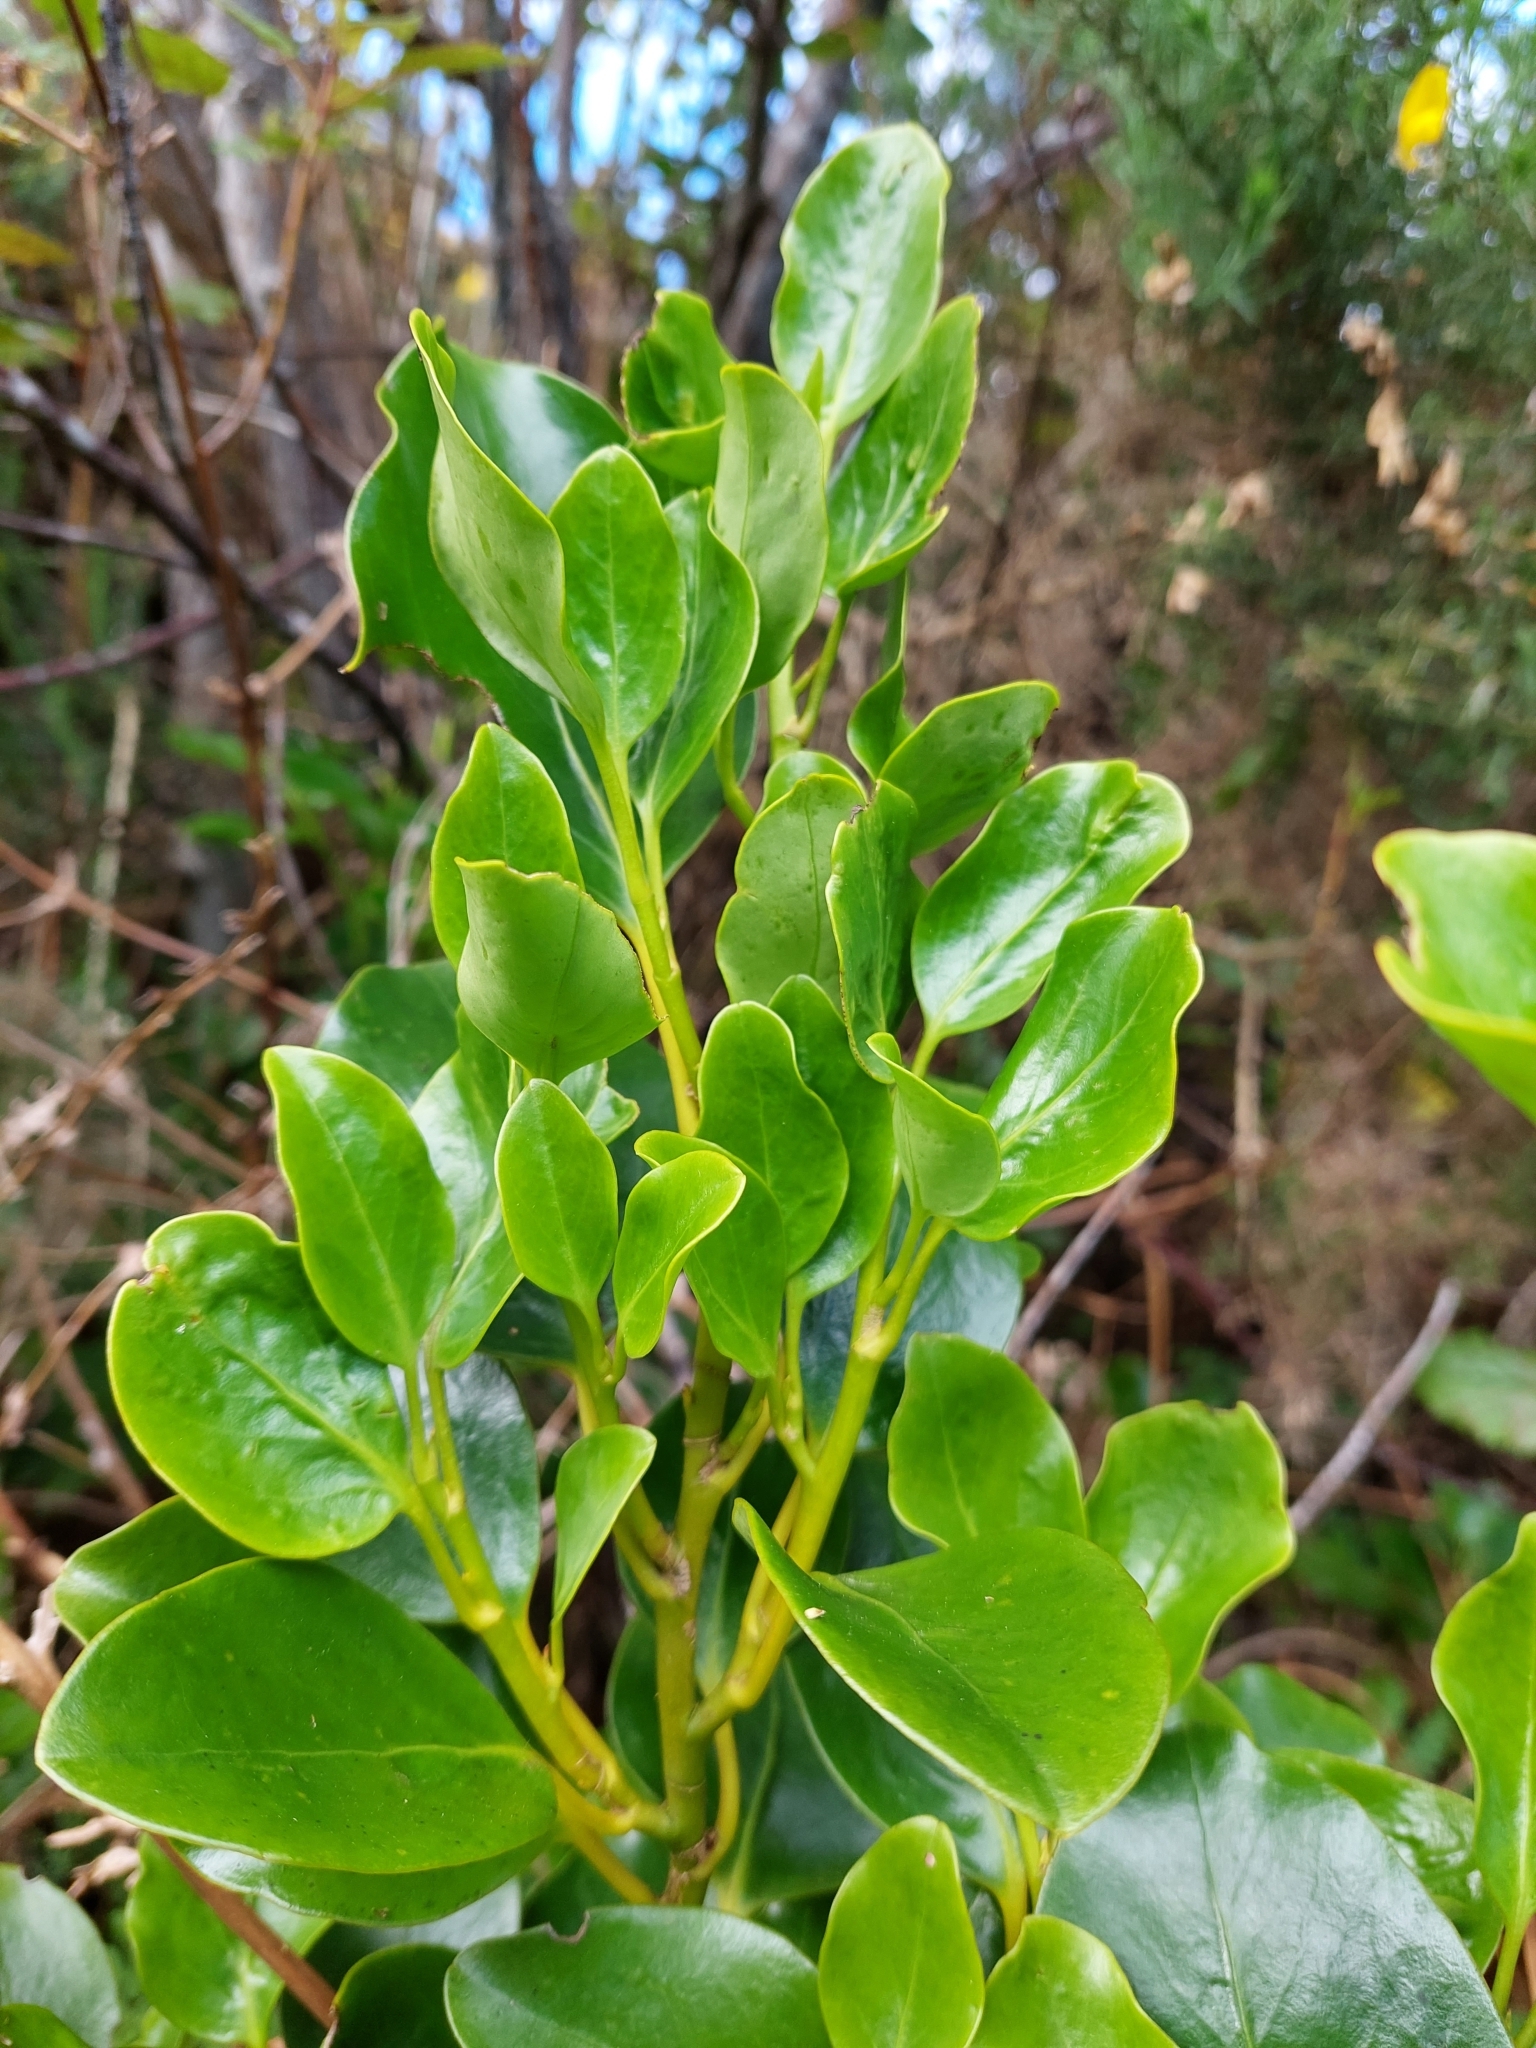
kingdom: Plantae
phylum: Tracheophyta
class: Magnoliopsida
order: Apiales
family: Griseliniaceae
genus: Griselinia
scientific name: Griselinia littoralis
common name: New zealand broadleaf
